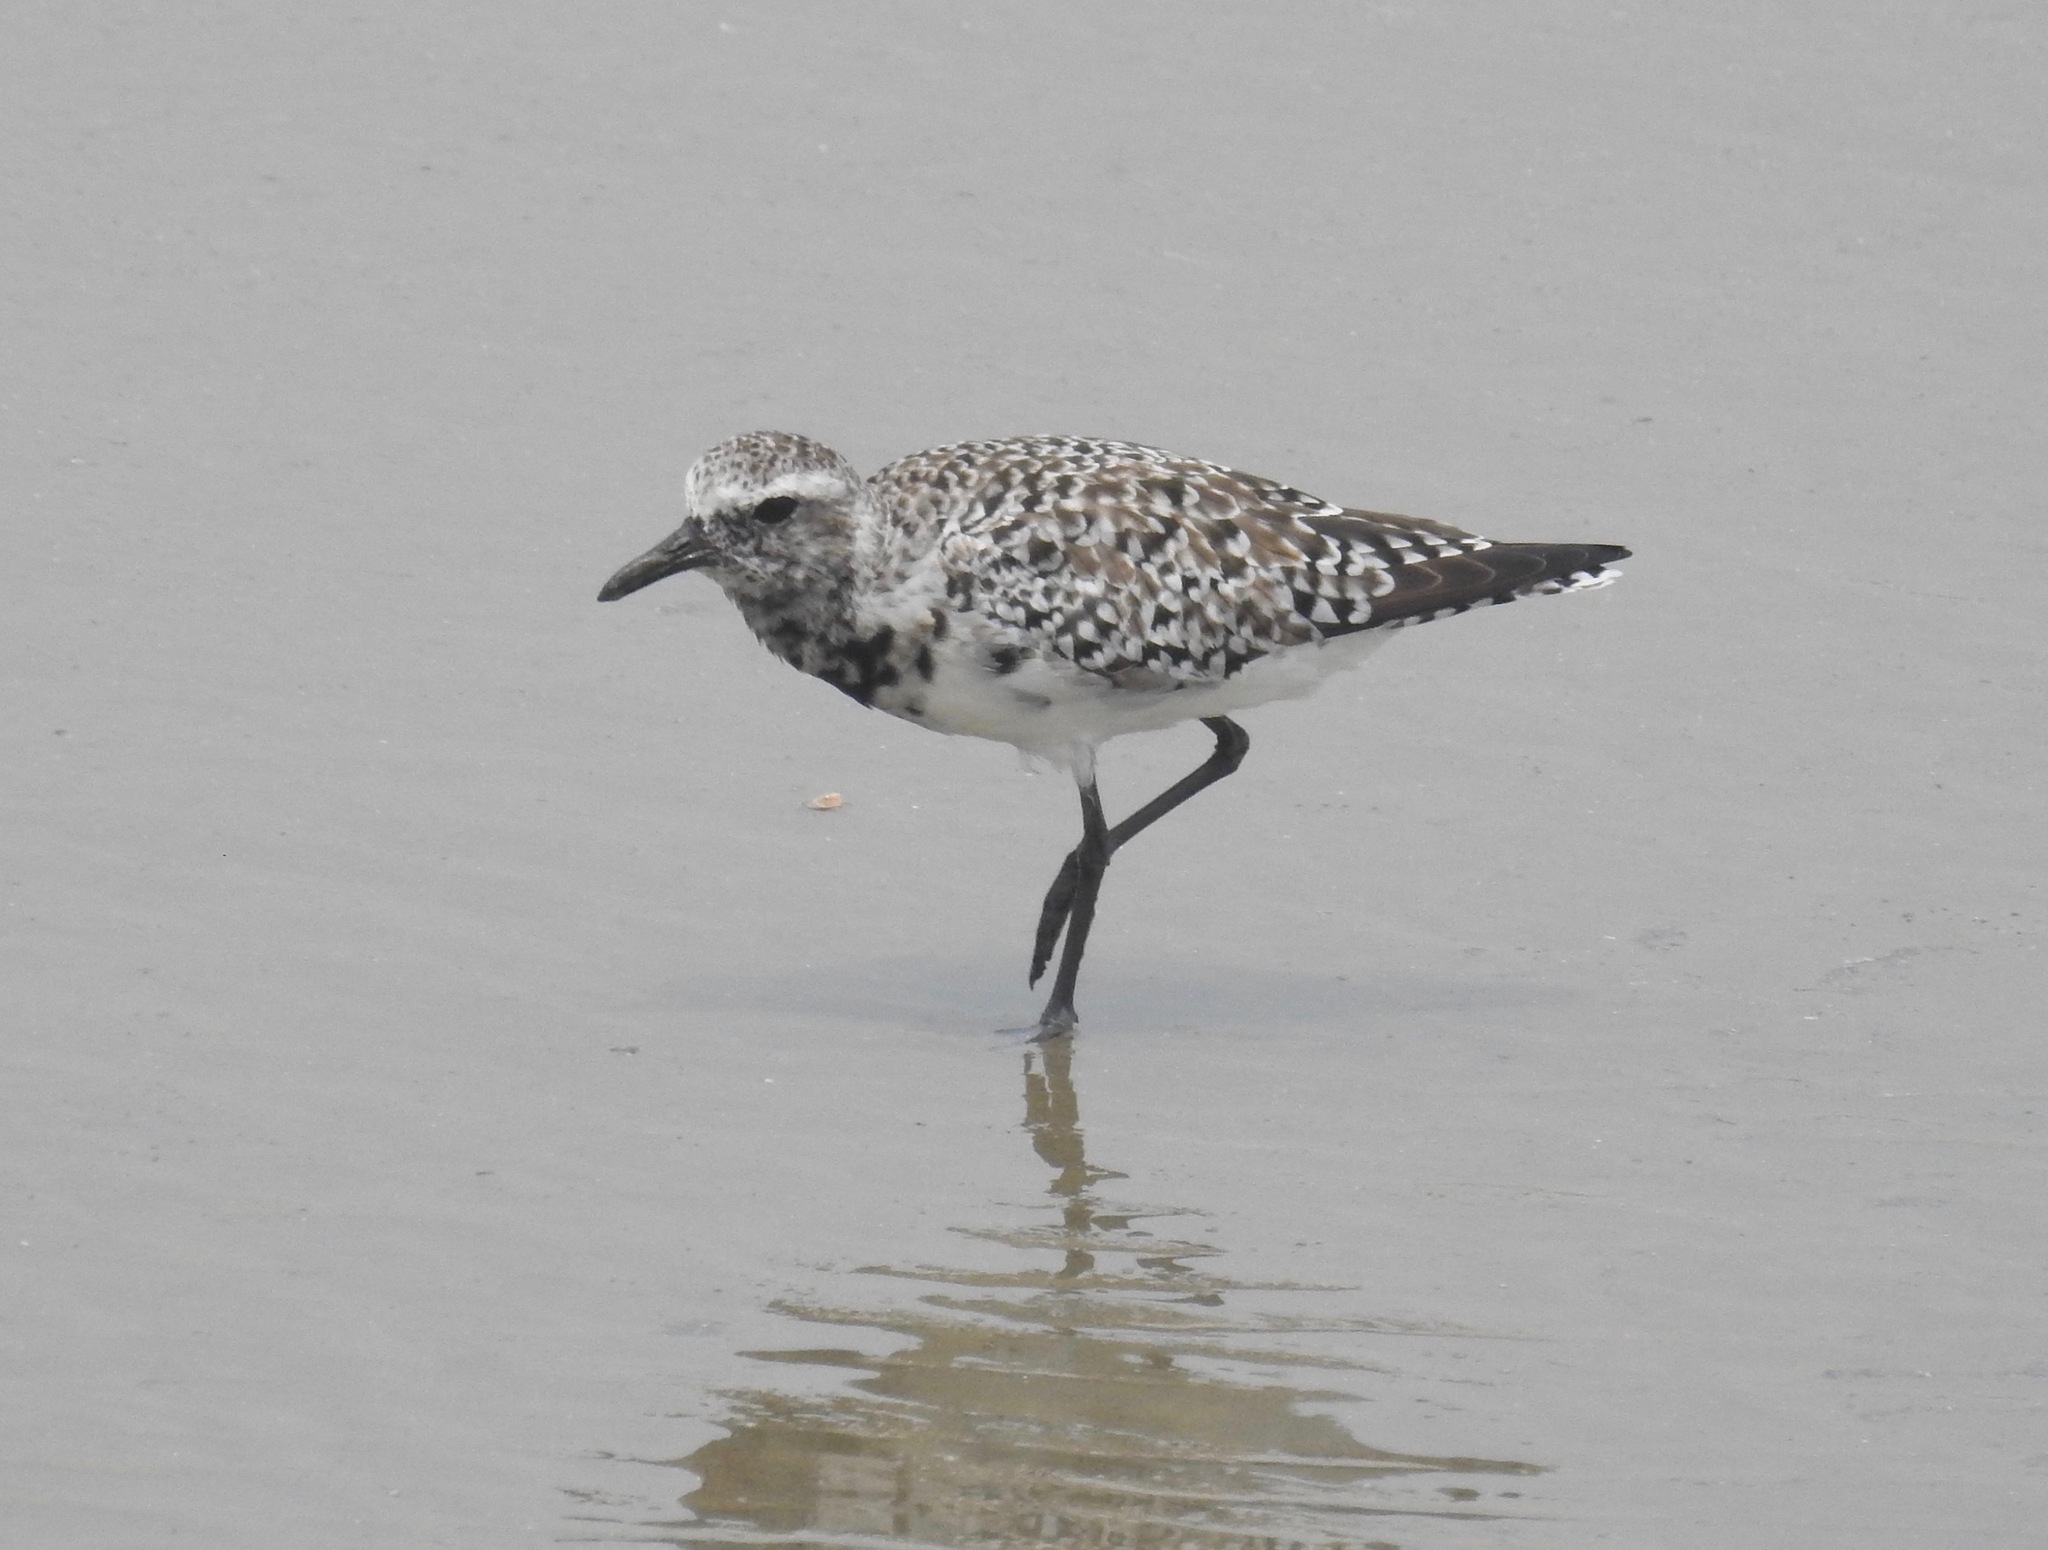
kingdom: Animalia
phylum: Chordata
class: Aves
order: Charadriiformes
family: Charadriidae
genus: Pluvialis
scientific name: Pluvialis squatarola
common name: Grey plover
